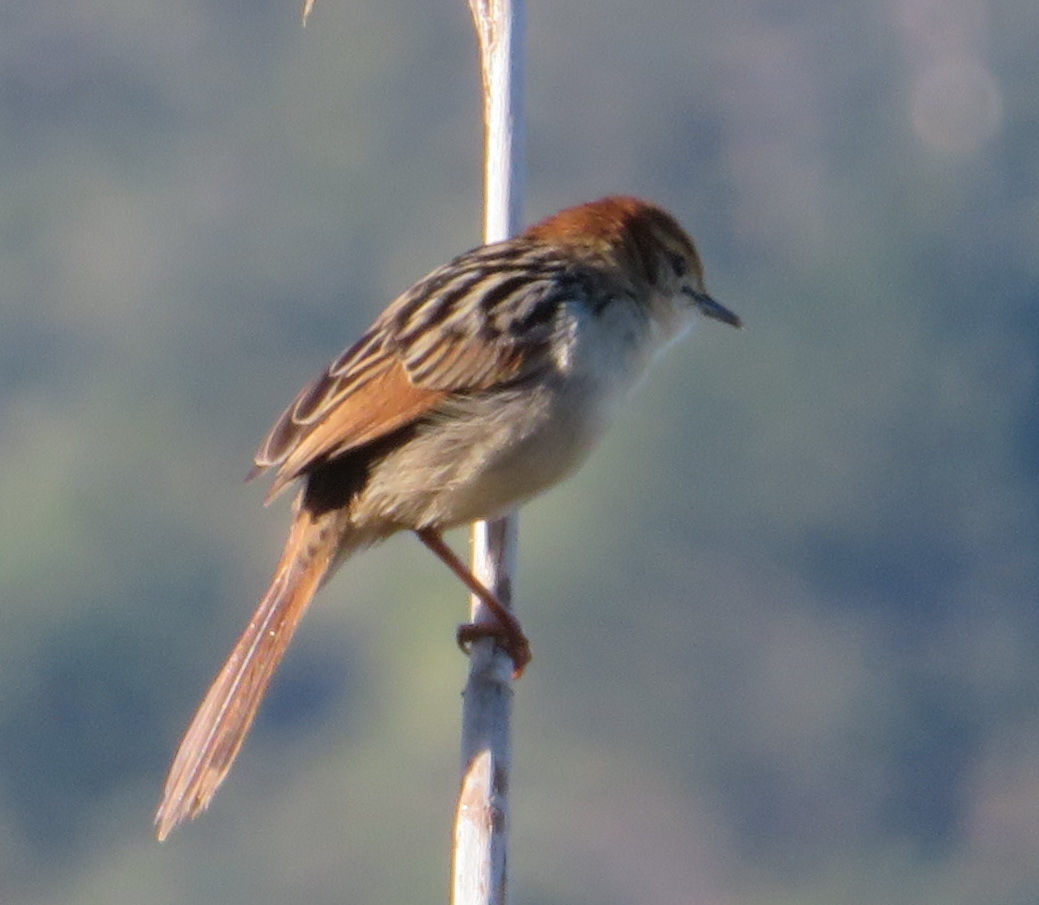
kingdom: Animalia
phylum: Chordata
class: Aves
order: Passeriformes
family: Cisticolidae
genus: Cisticola
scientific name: Cisticola tinniens
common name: Levaillant's cisticola
